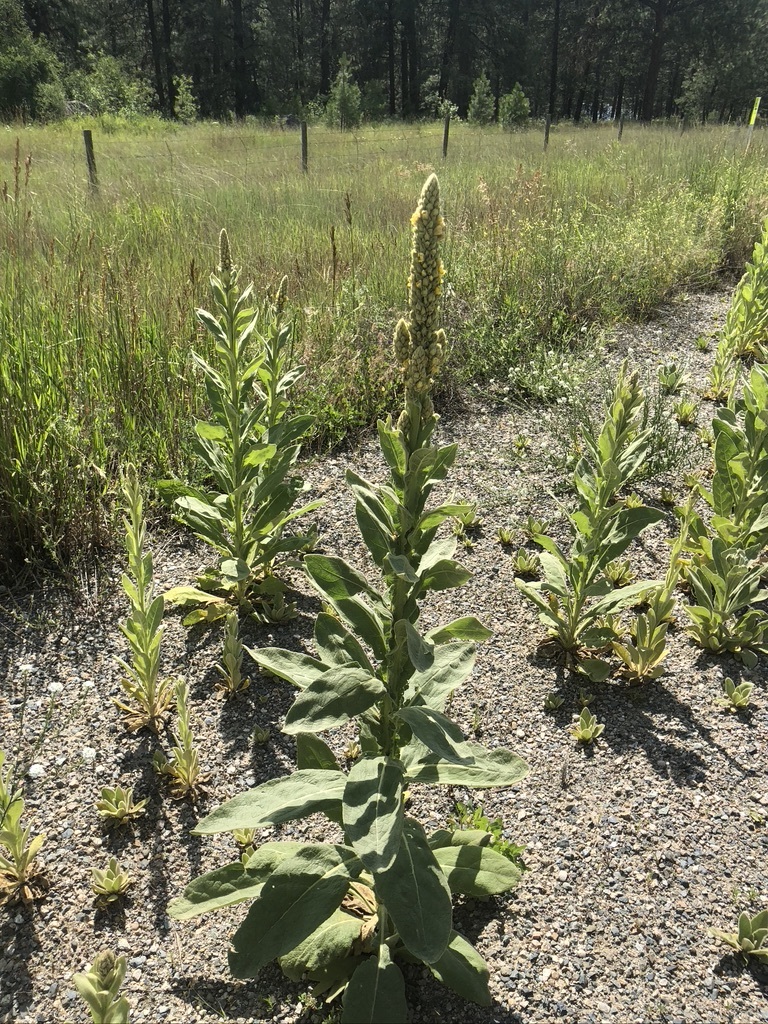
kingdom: Plantae
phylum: Tracheophyta
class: Magnoliopsida
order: Lamiales
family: Scrophulariaceae
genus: Verbascum
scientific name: Verbascum thapsus
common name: Common mullein
